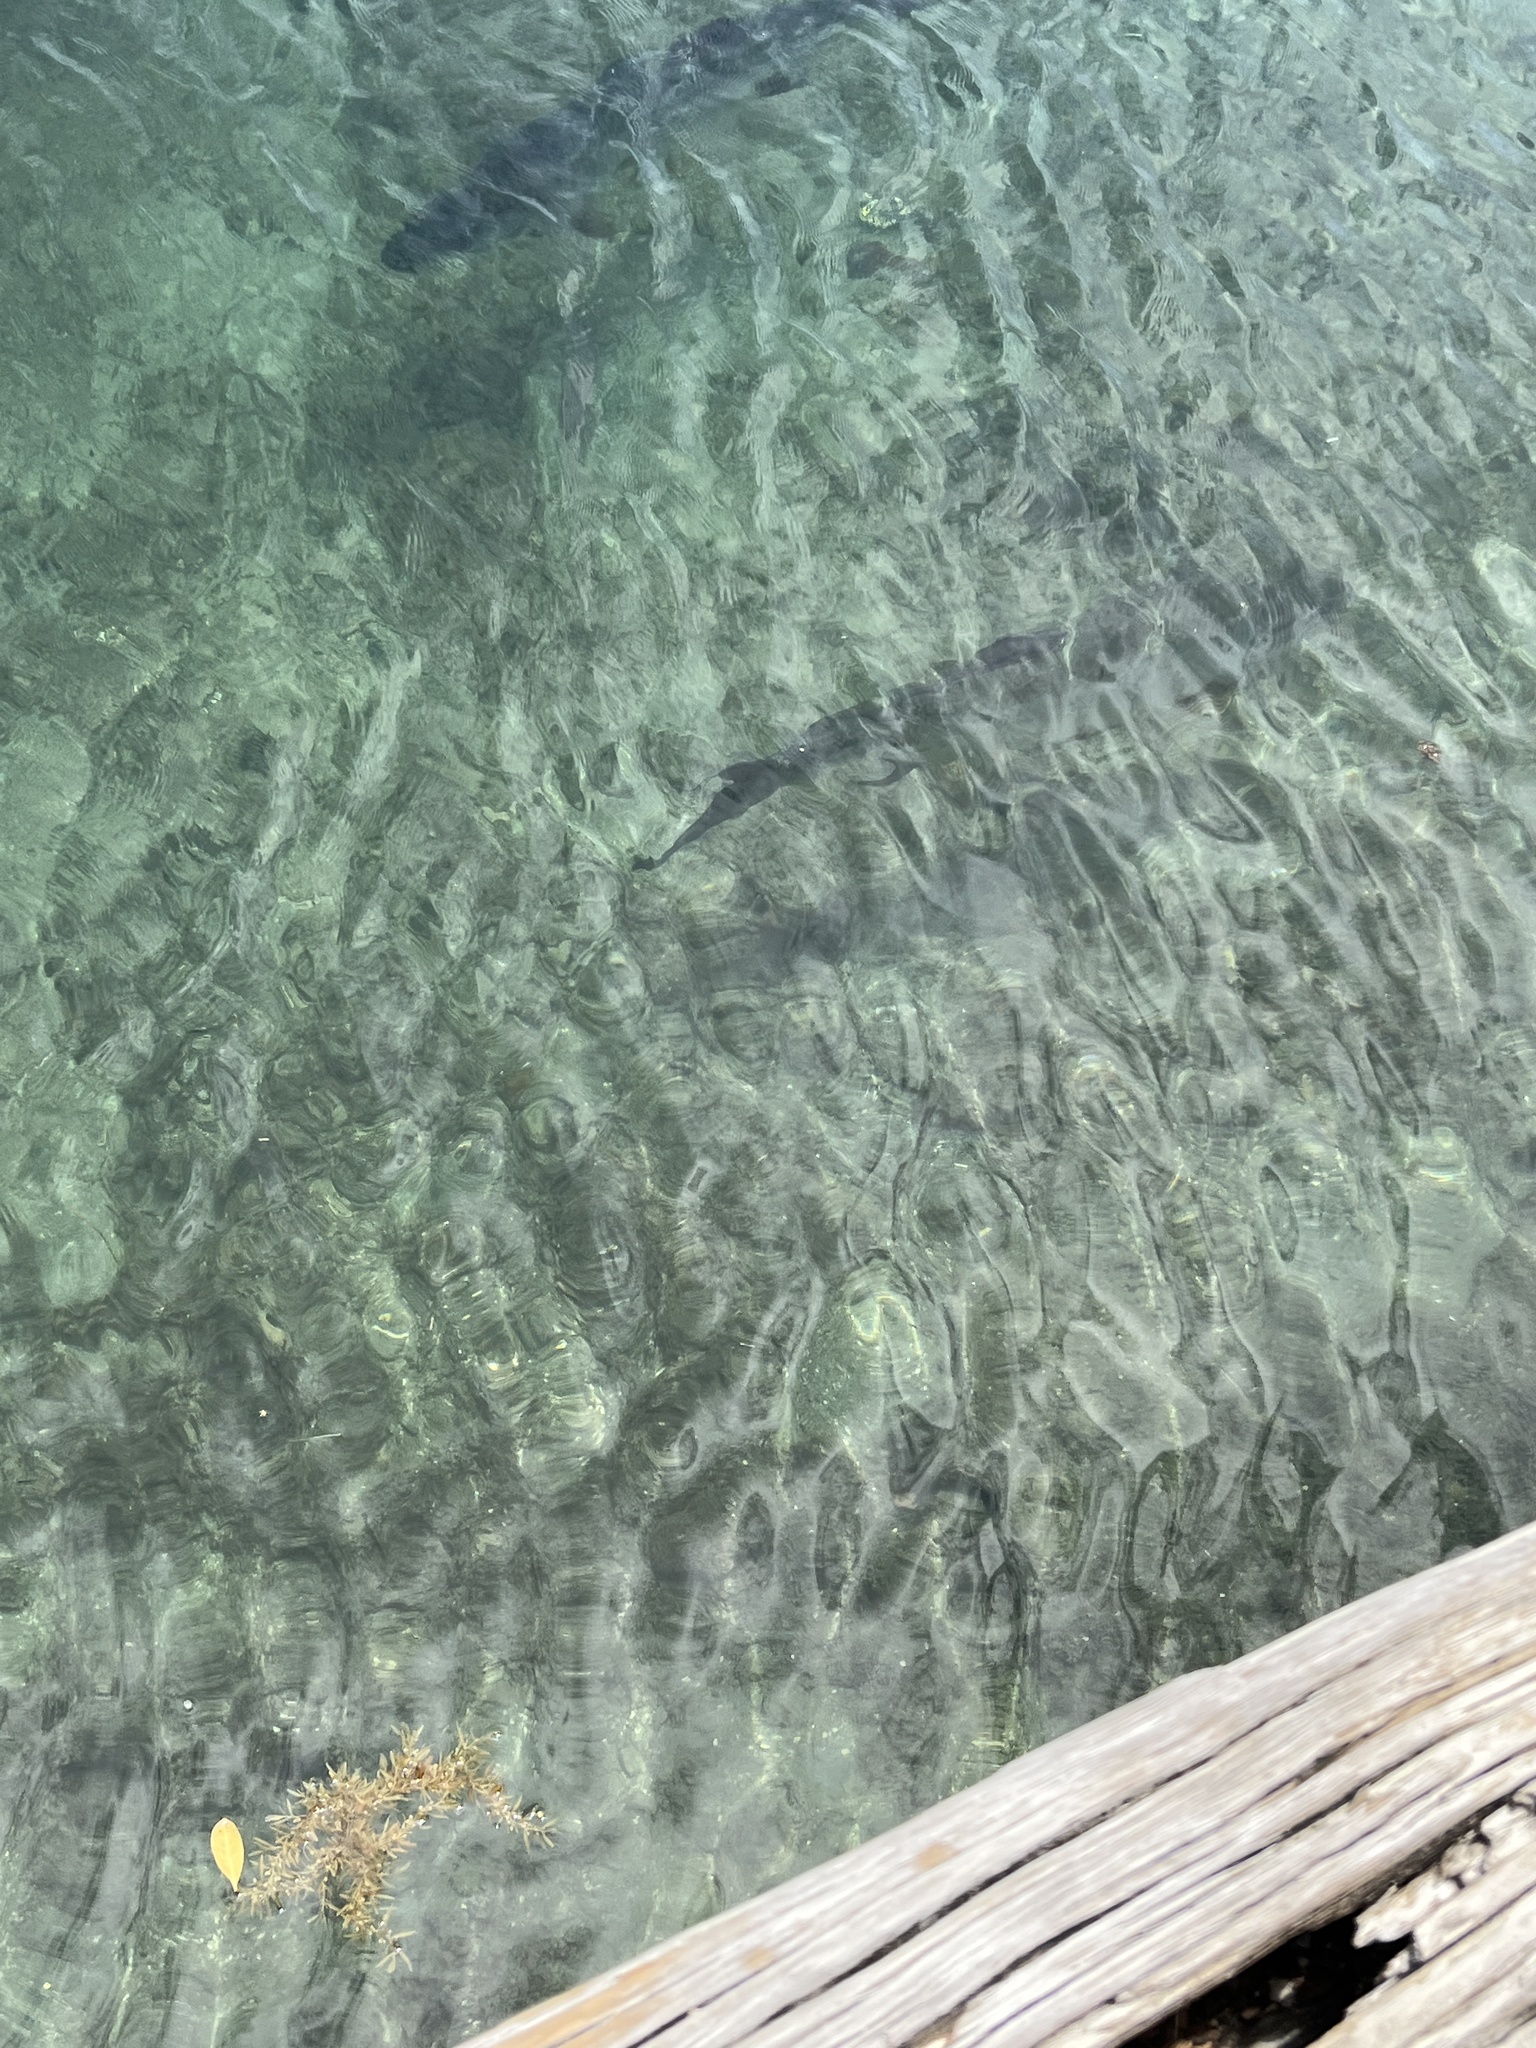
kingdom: Animalia
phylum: Chordata
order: Elopiformes
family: Megalopidae
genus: Megalops
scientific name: Megalops atlanticus
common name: Tarpon
